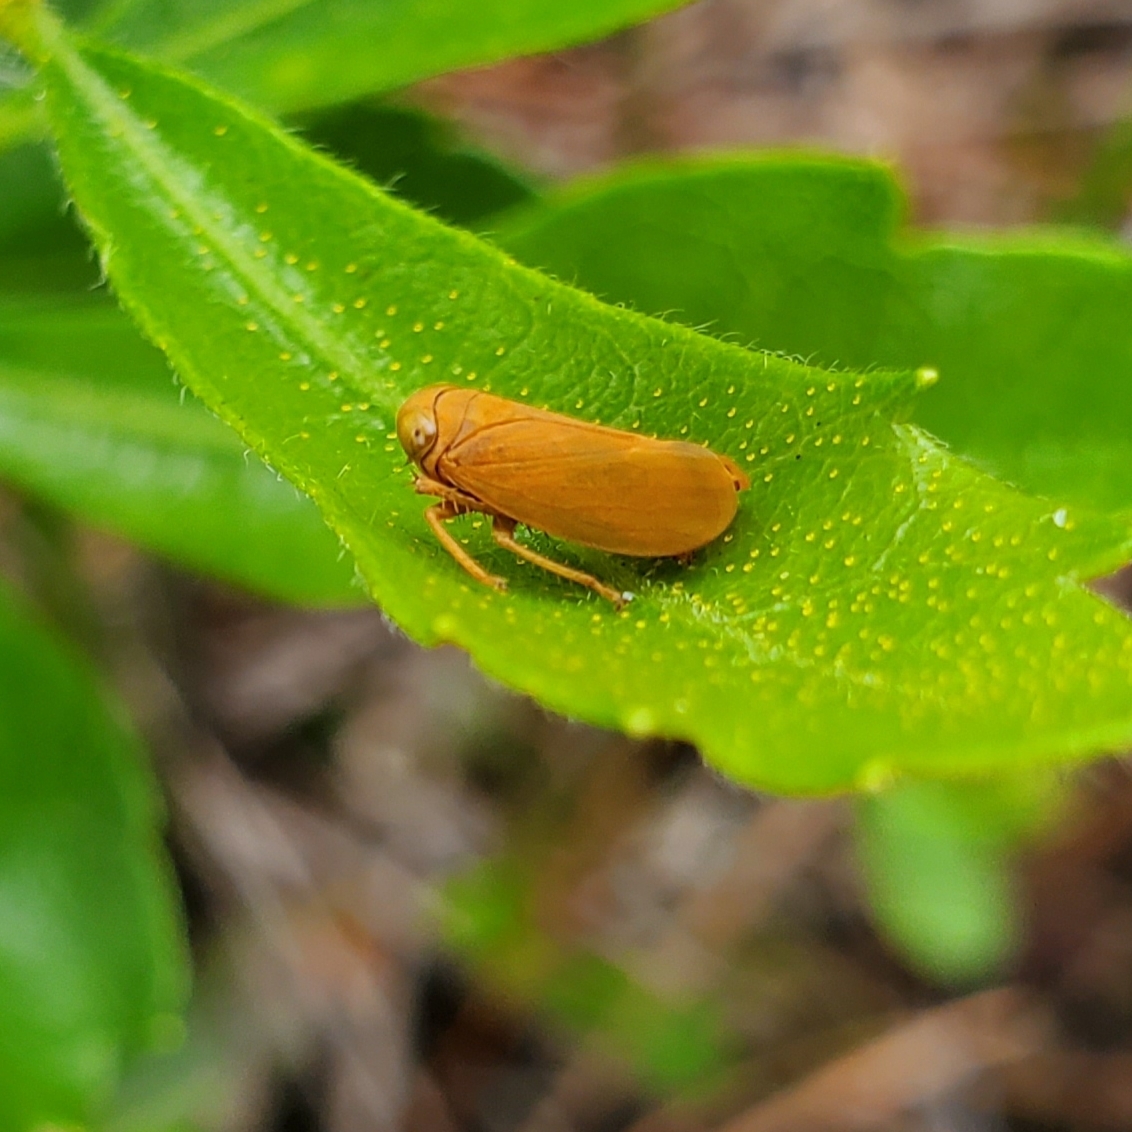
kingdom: Animalia
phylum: Arthropoda
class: Insecta
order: Hemiptera
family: Cicadellidae
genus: Jikradia
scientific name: Jikradia olitoria
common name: Coppery leafhopper
